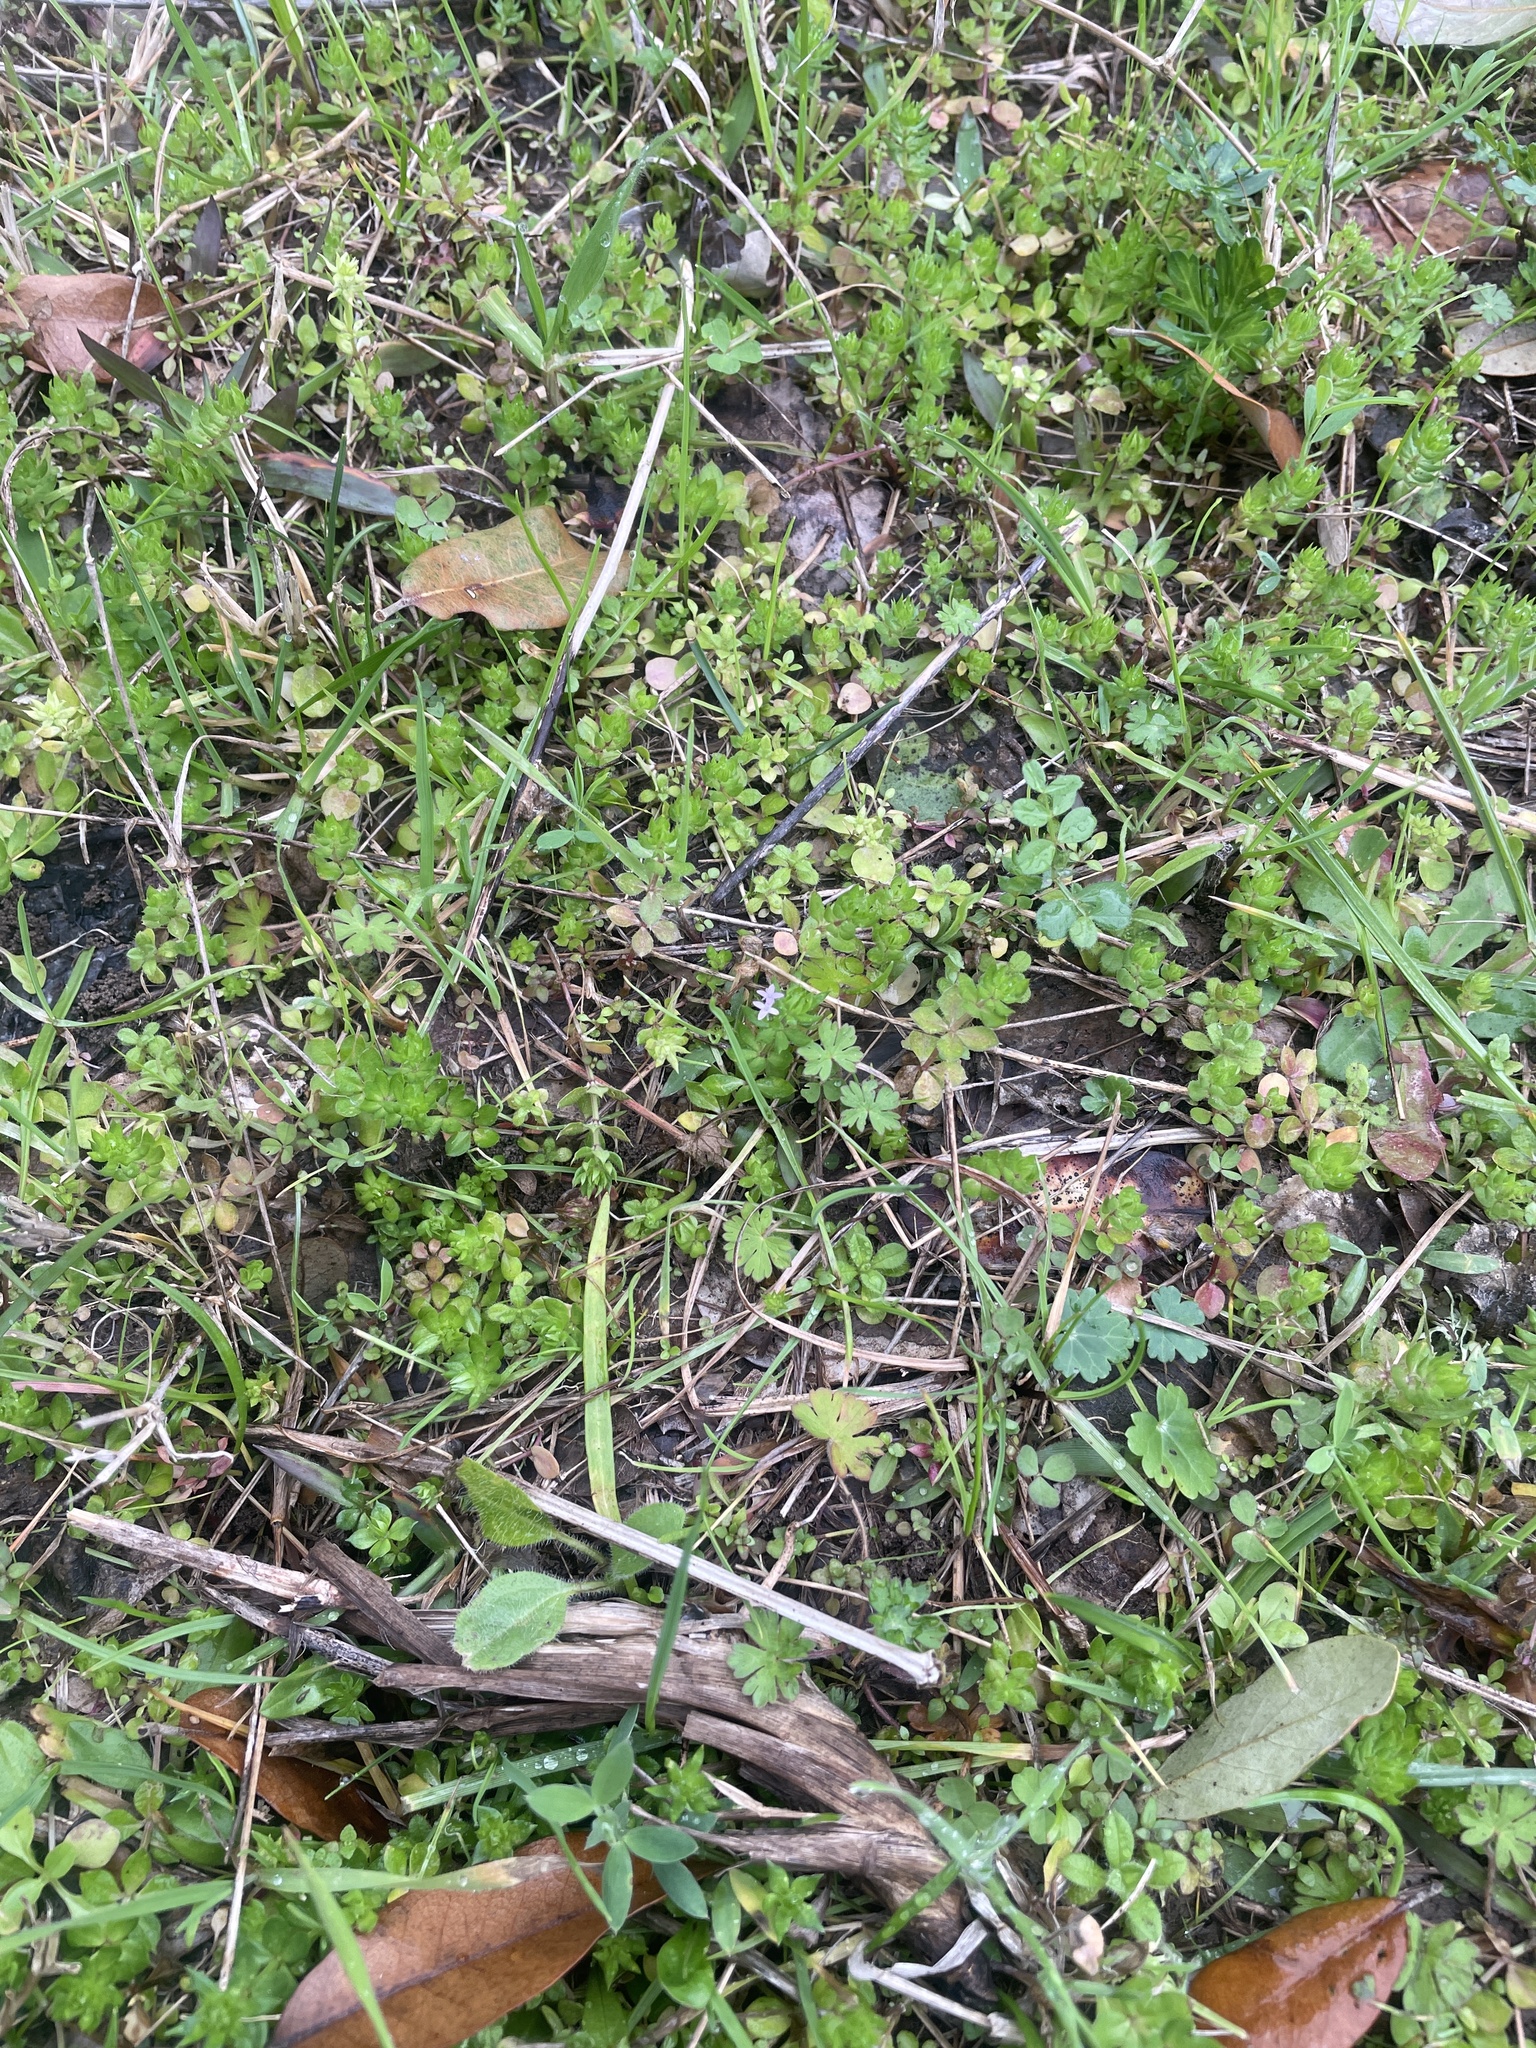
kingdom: Plantae
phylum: Tracheophyta
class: Magnoliopsida
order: Gentianales
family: Rubiaceae
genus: Sherardia
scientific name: Sherardia arvensis
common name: Field madder
